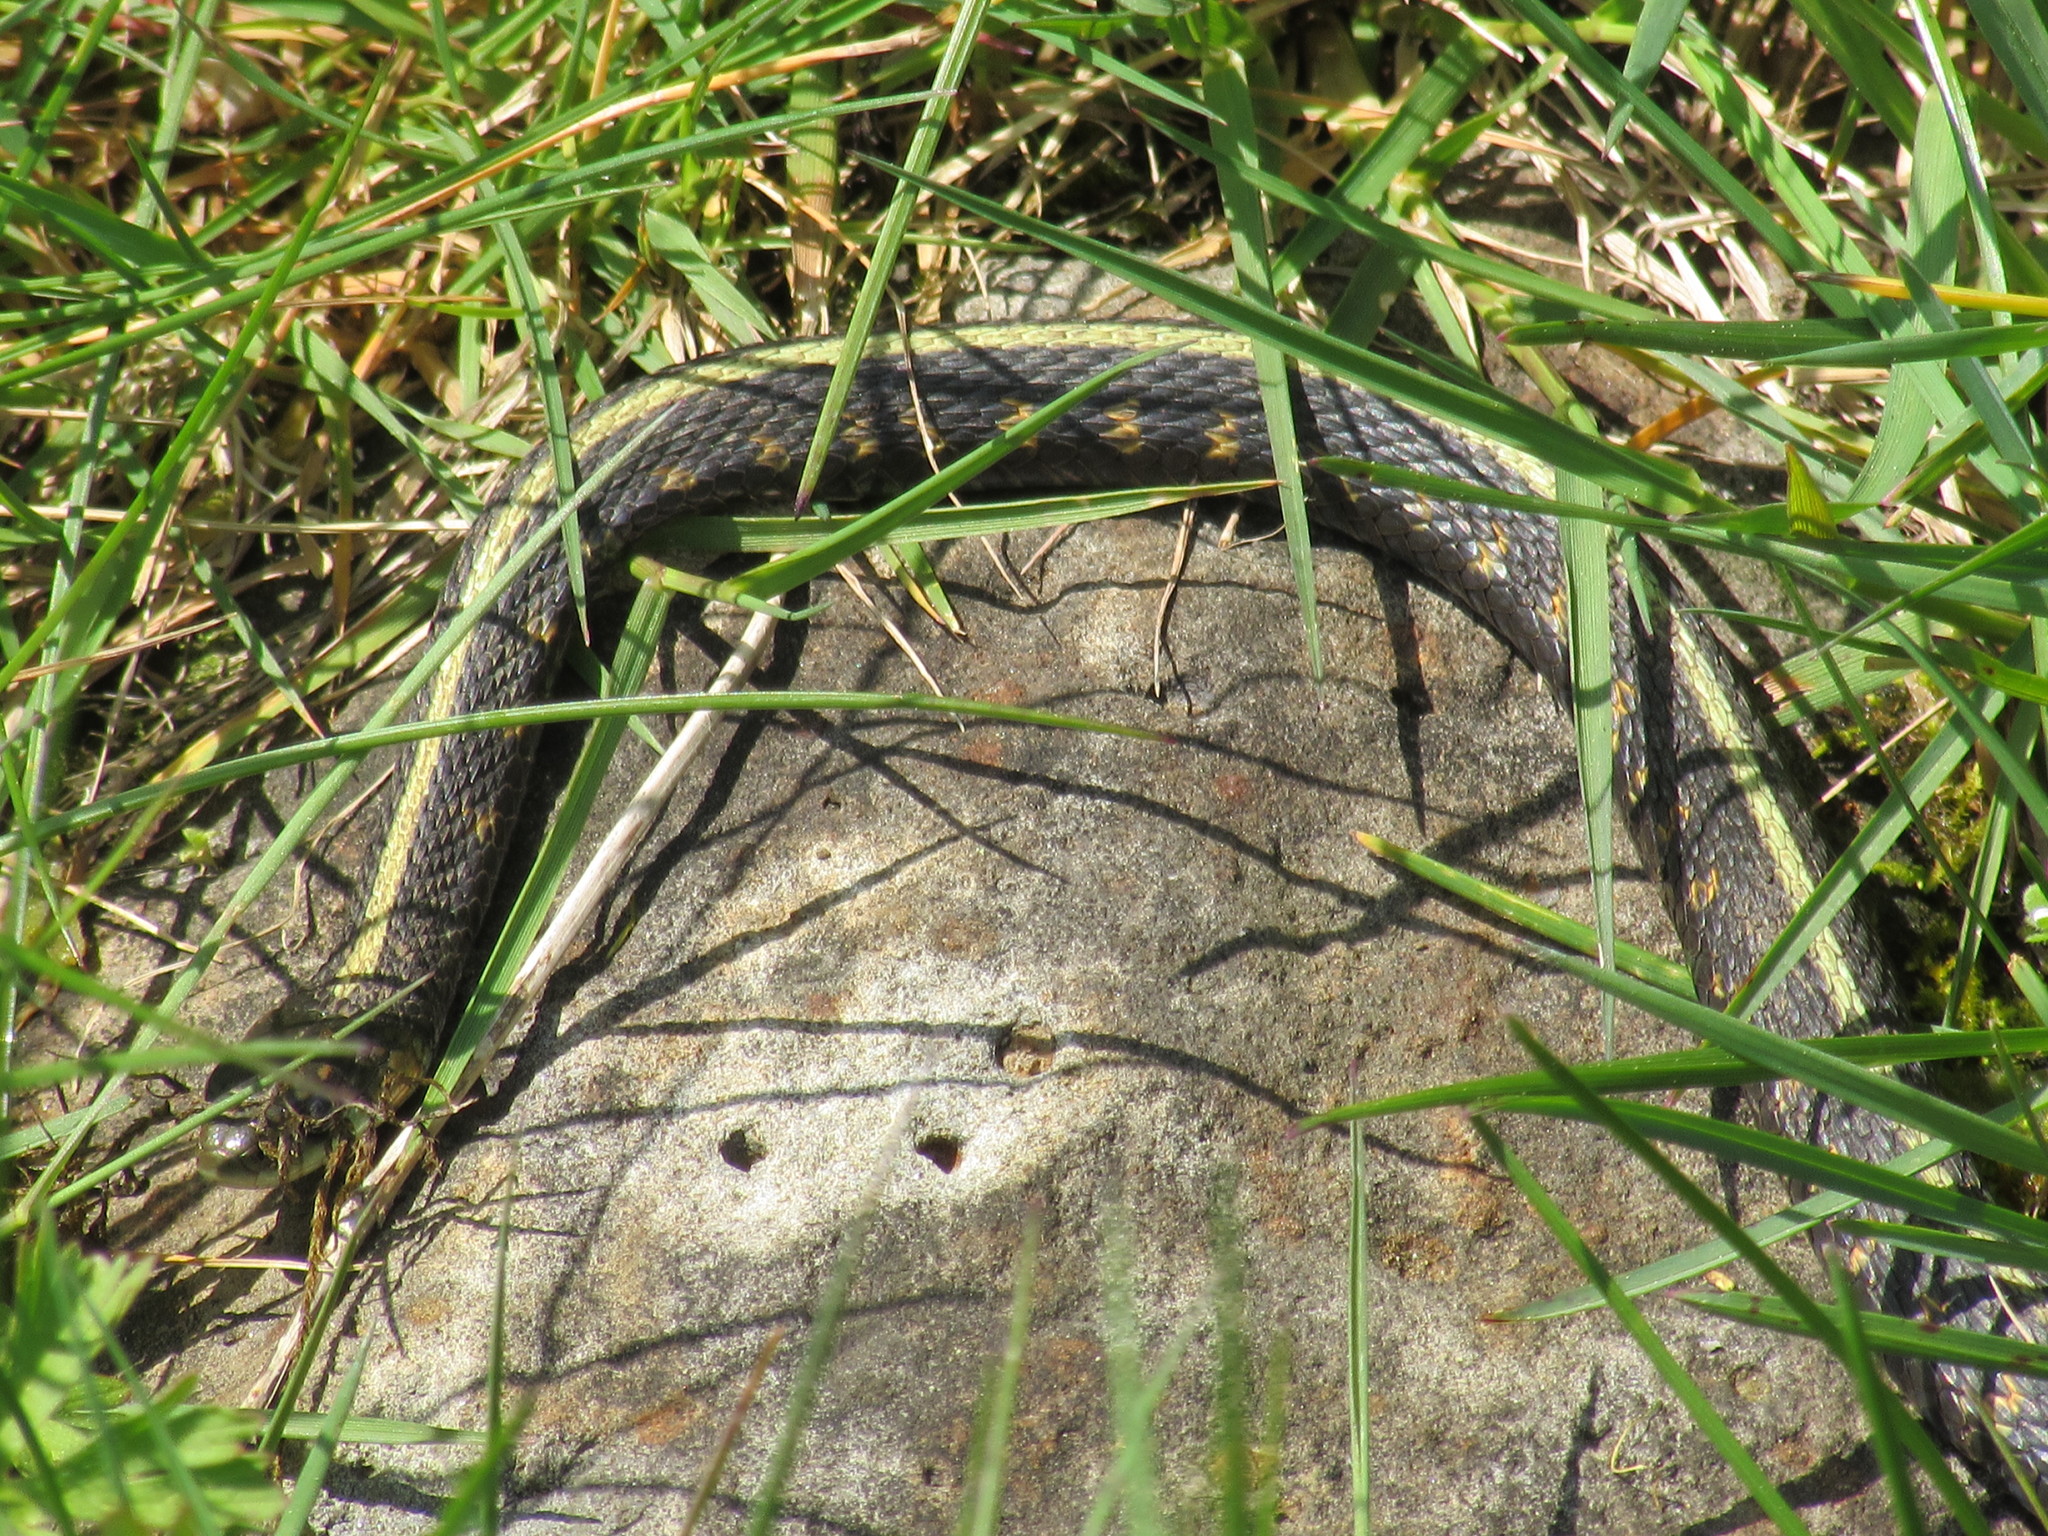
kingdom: Animalia
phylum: Chordata
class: Squamata
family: Colubridae
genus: Thamnophis
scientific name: Thamnophis sirtalis
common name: Common garter snake
